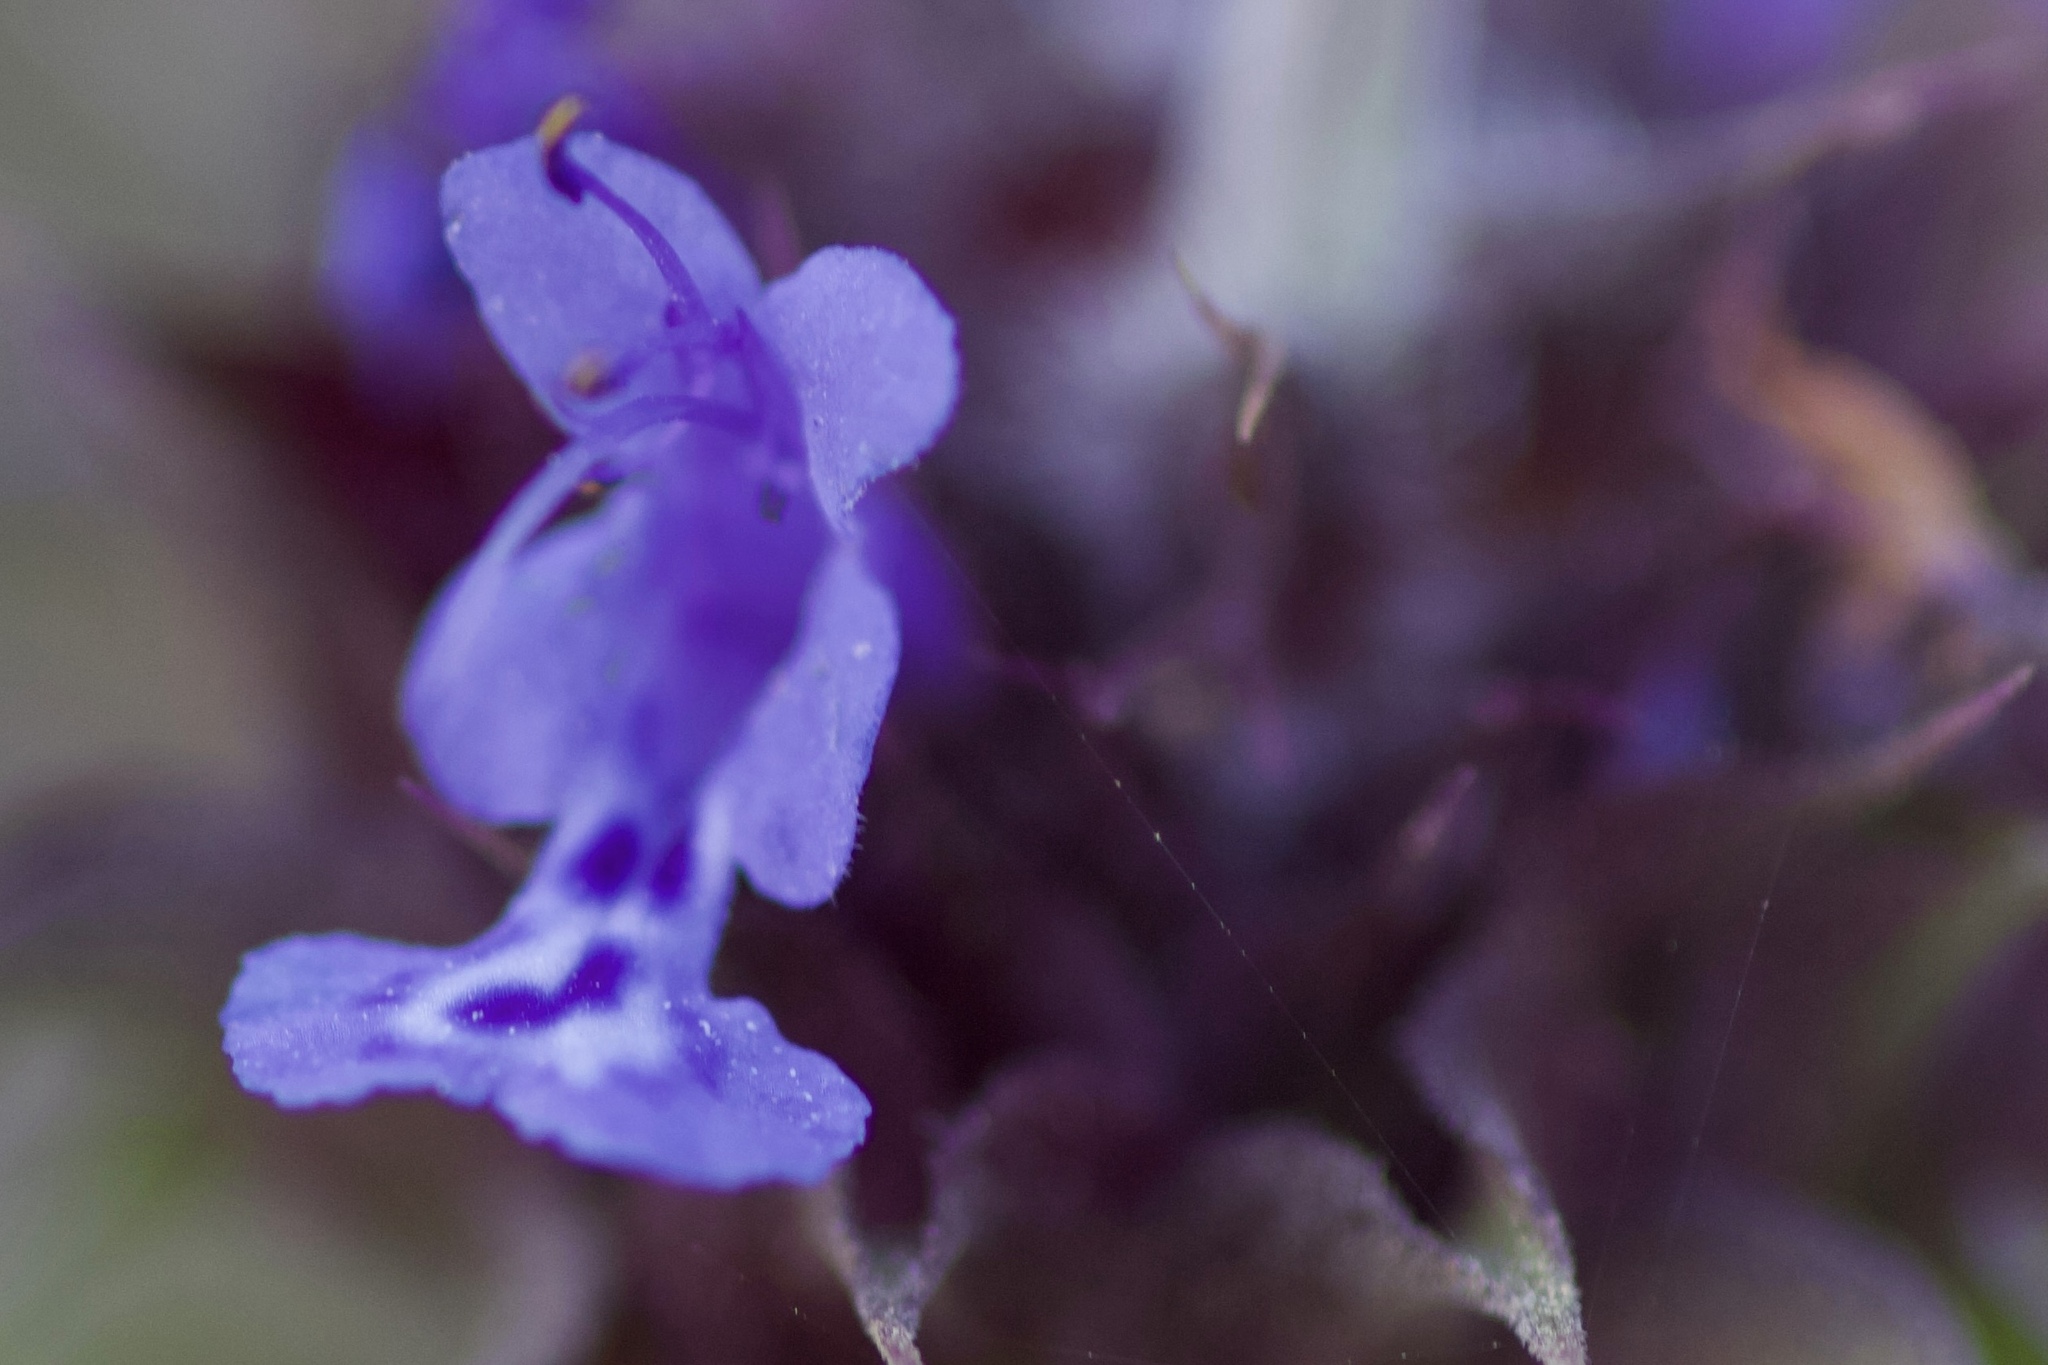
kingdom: Plantae
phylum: Tracheophyta
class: Magnoliopsida
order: Lamiales
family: Lamiaceae
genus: Salvia
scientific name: Salvia columbariae
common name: Chia
